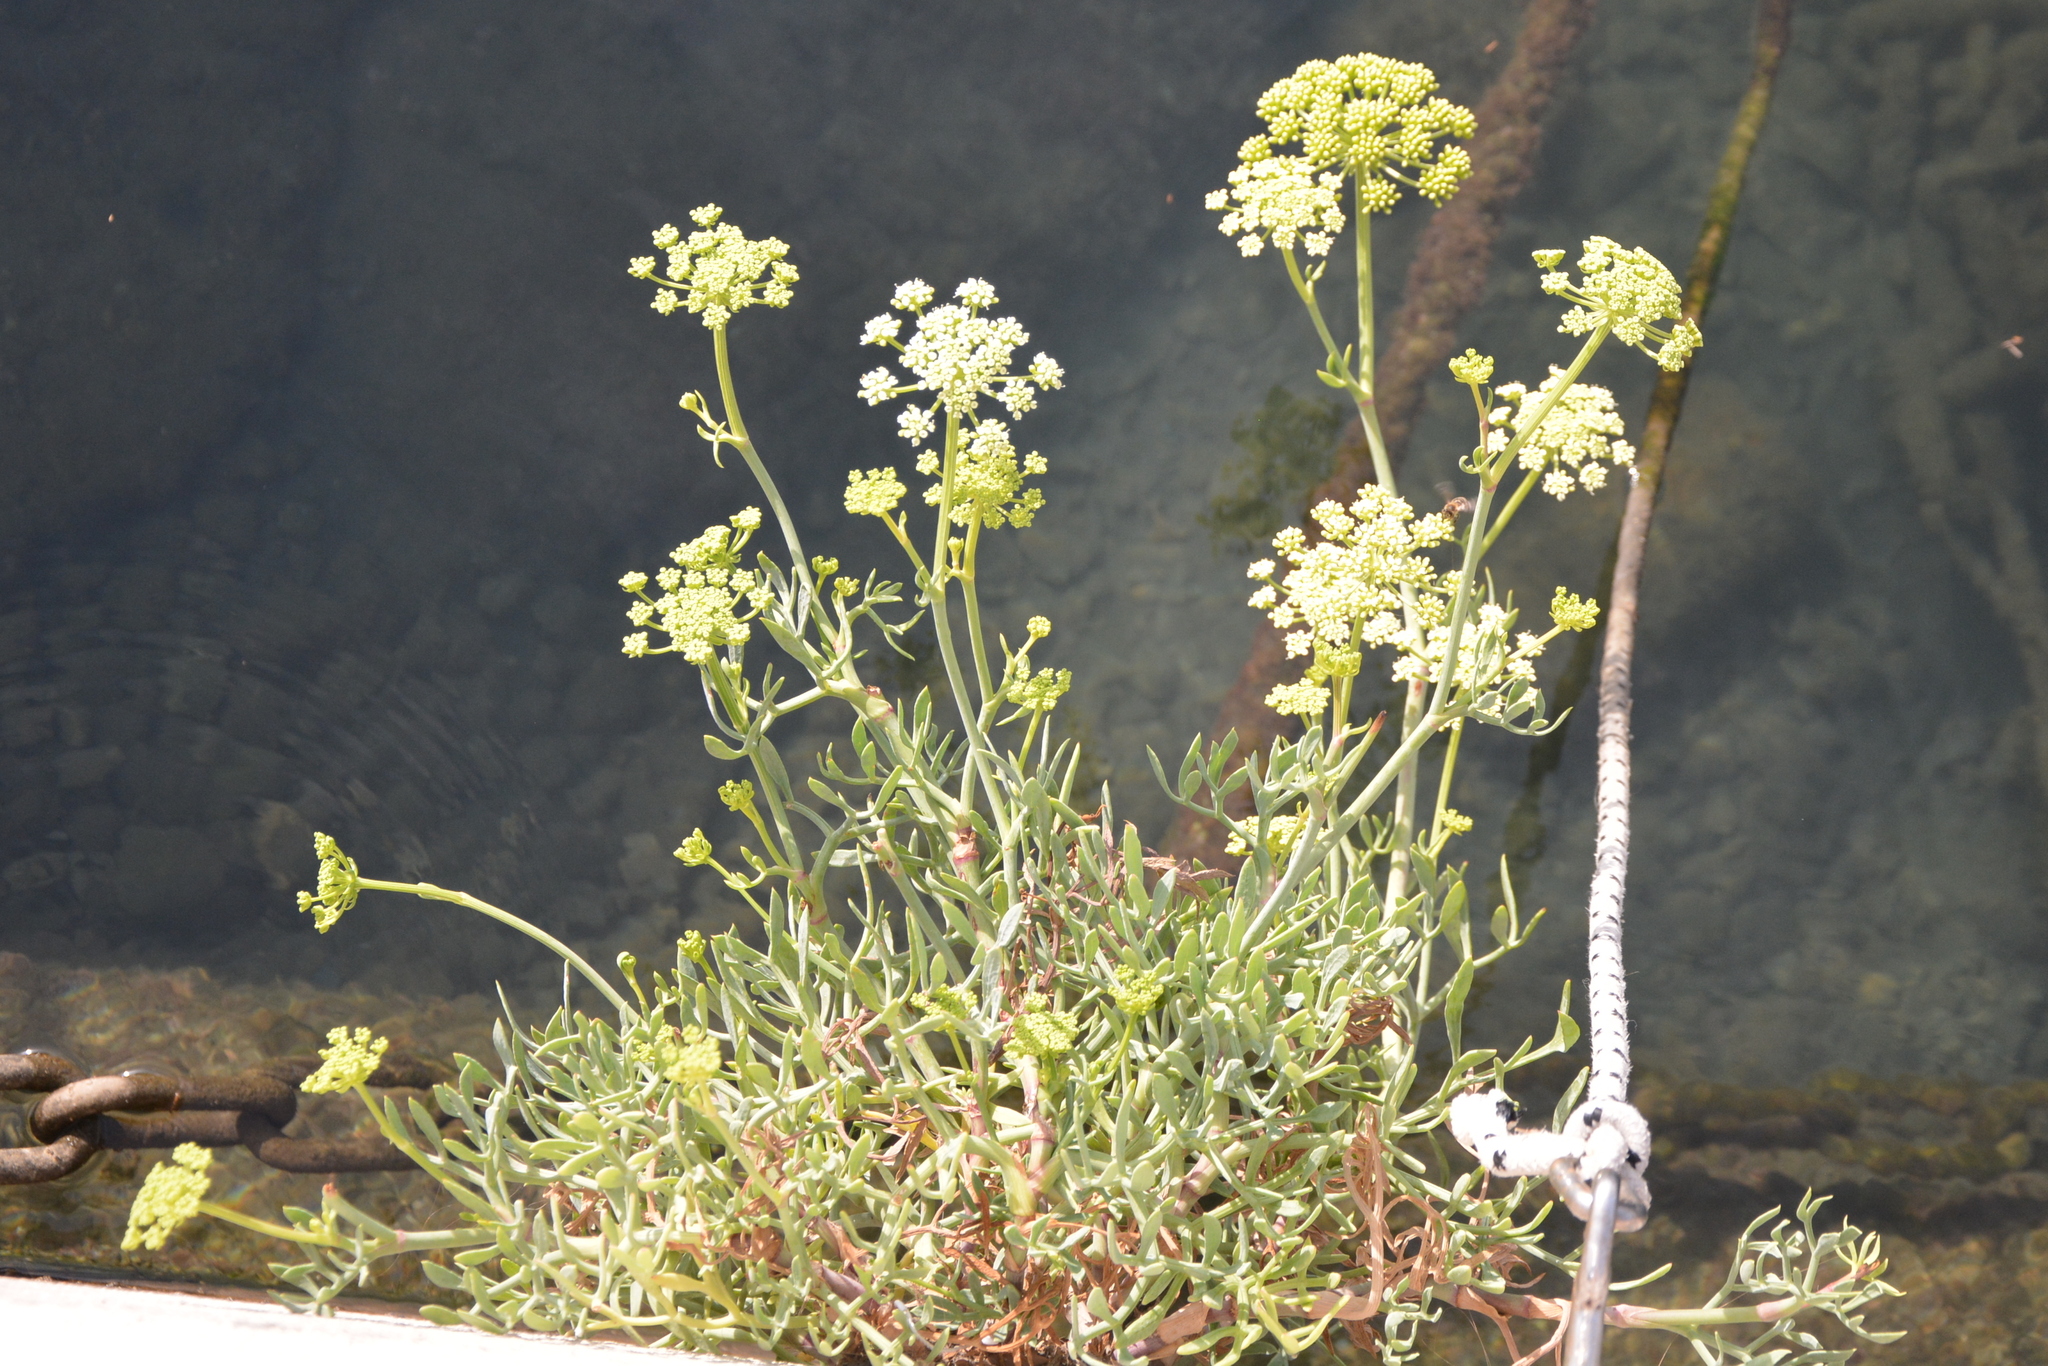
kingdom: Plantae
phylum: Tracheophyta
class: Magnoliopsida
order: Apiales
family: Apiaceae
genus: Crithmum
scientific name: Crithmum maritimum
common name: Rock samphire
